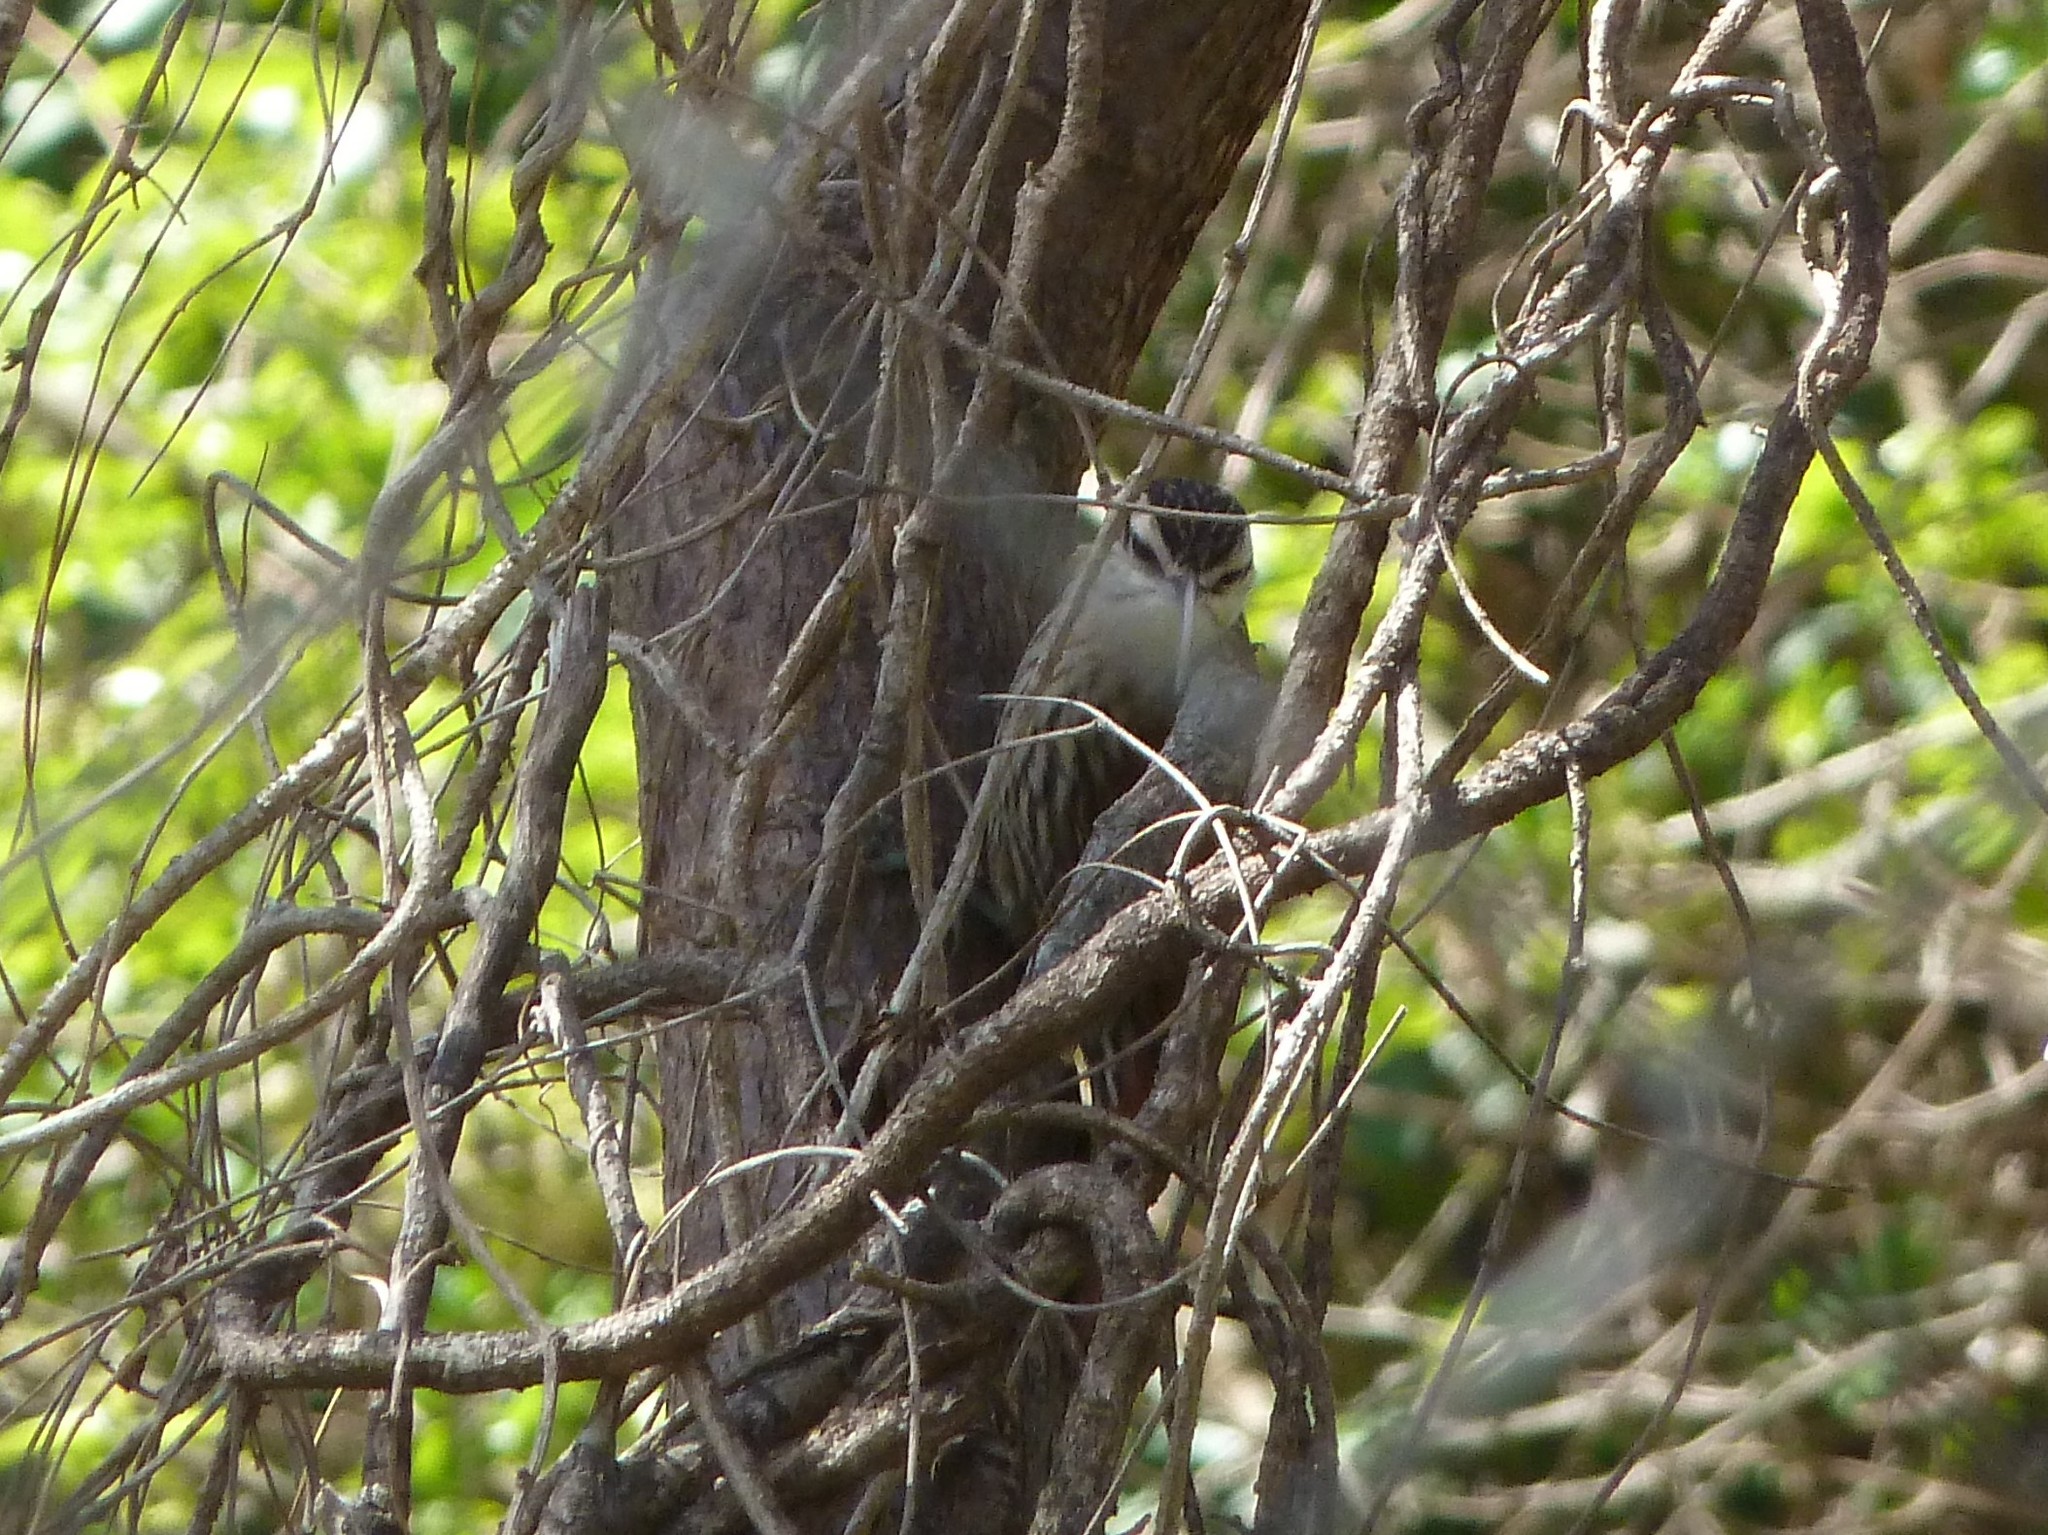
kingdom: Animalia
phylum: Chordata
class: Aves
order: Passeriformes
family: Furnariidae
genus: Lepidocolaptes
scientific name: Lepidocolaptes angustirostris
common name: Narrow-billed woodcreeper
